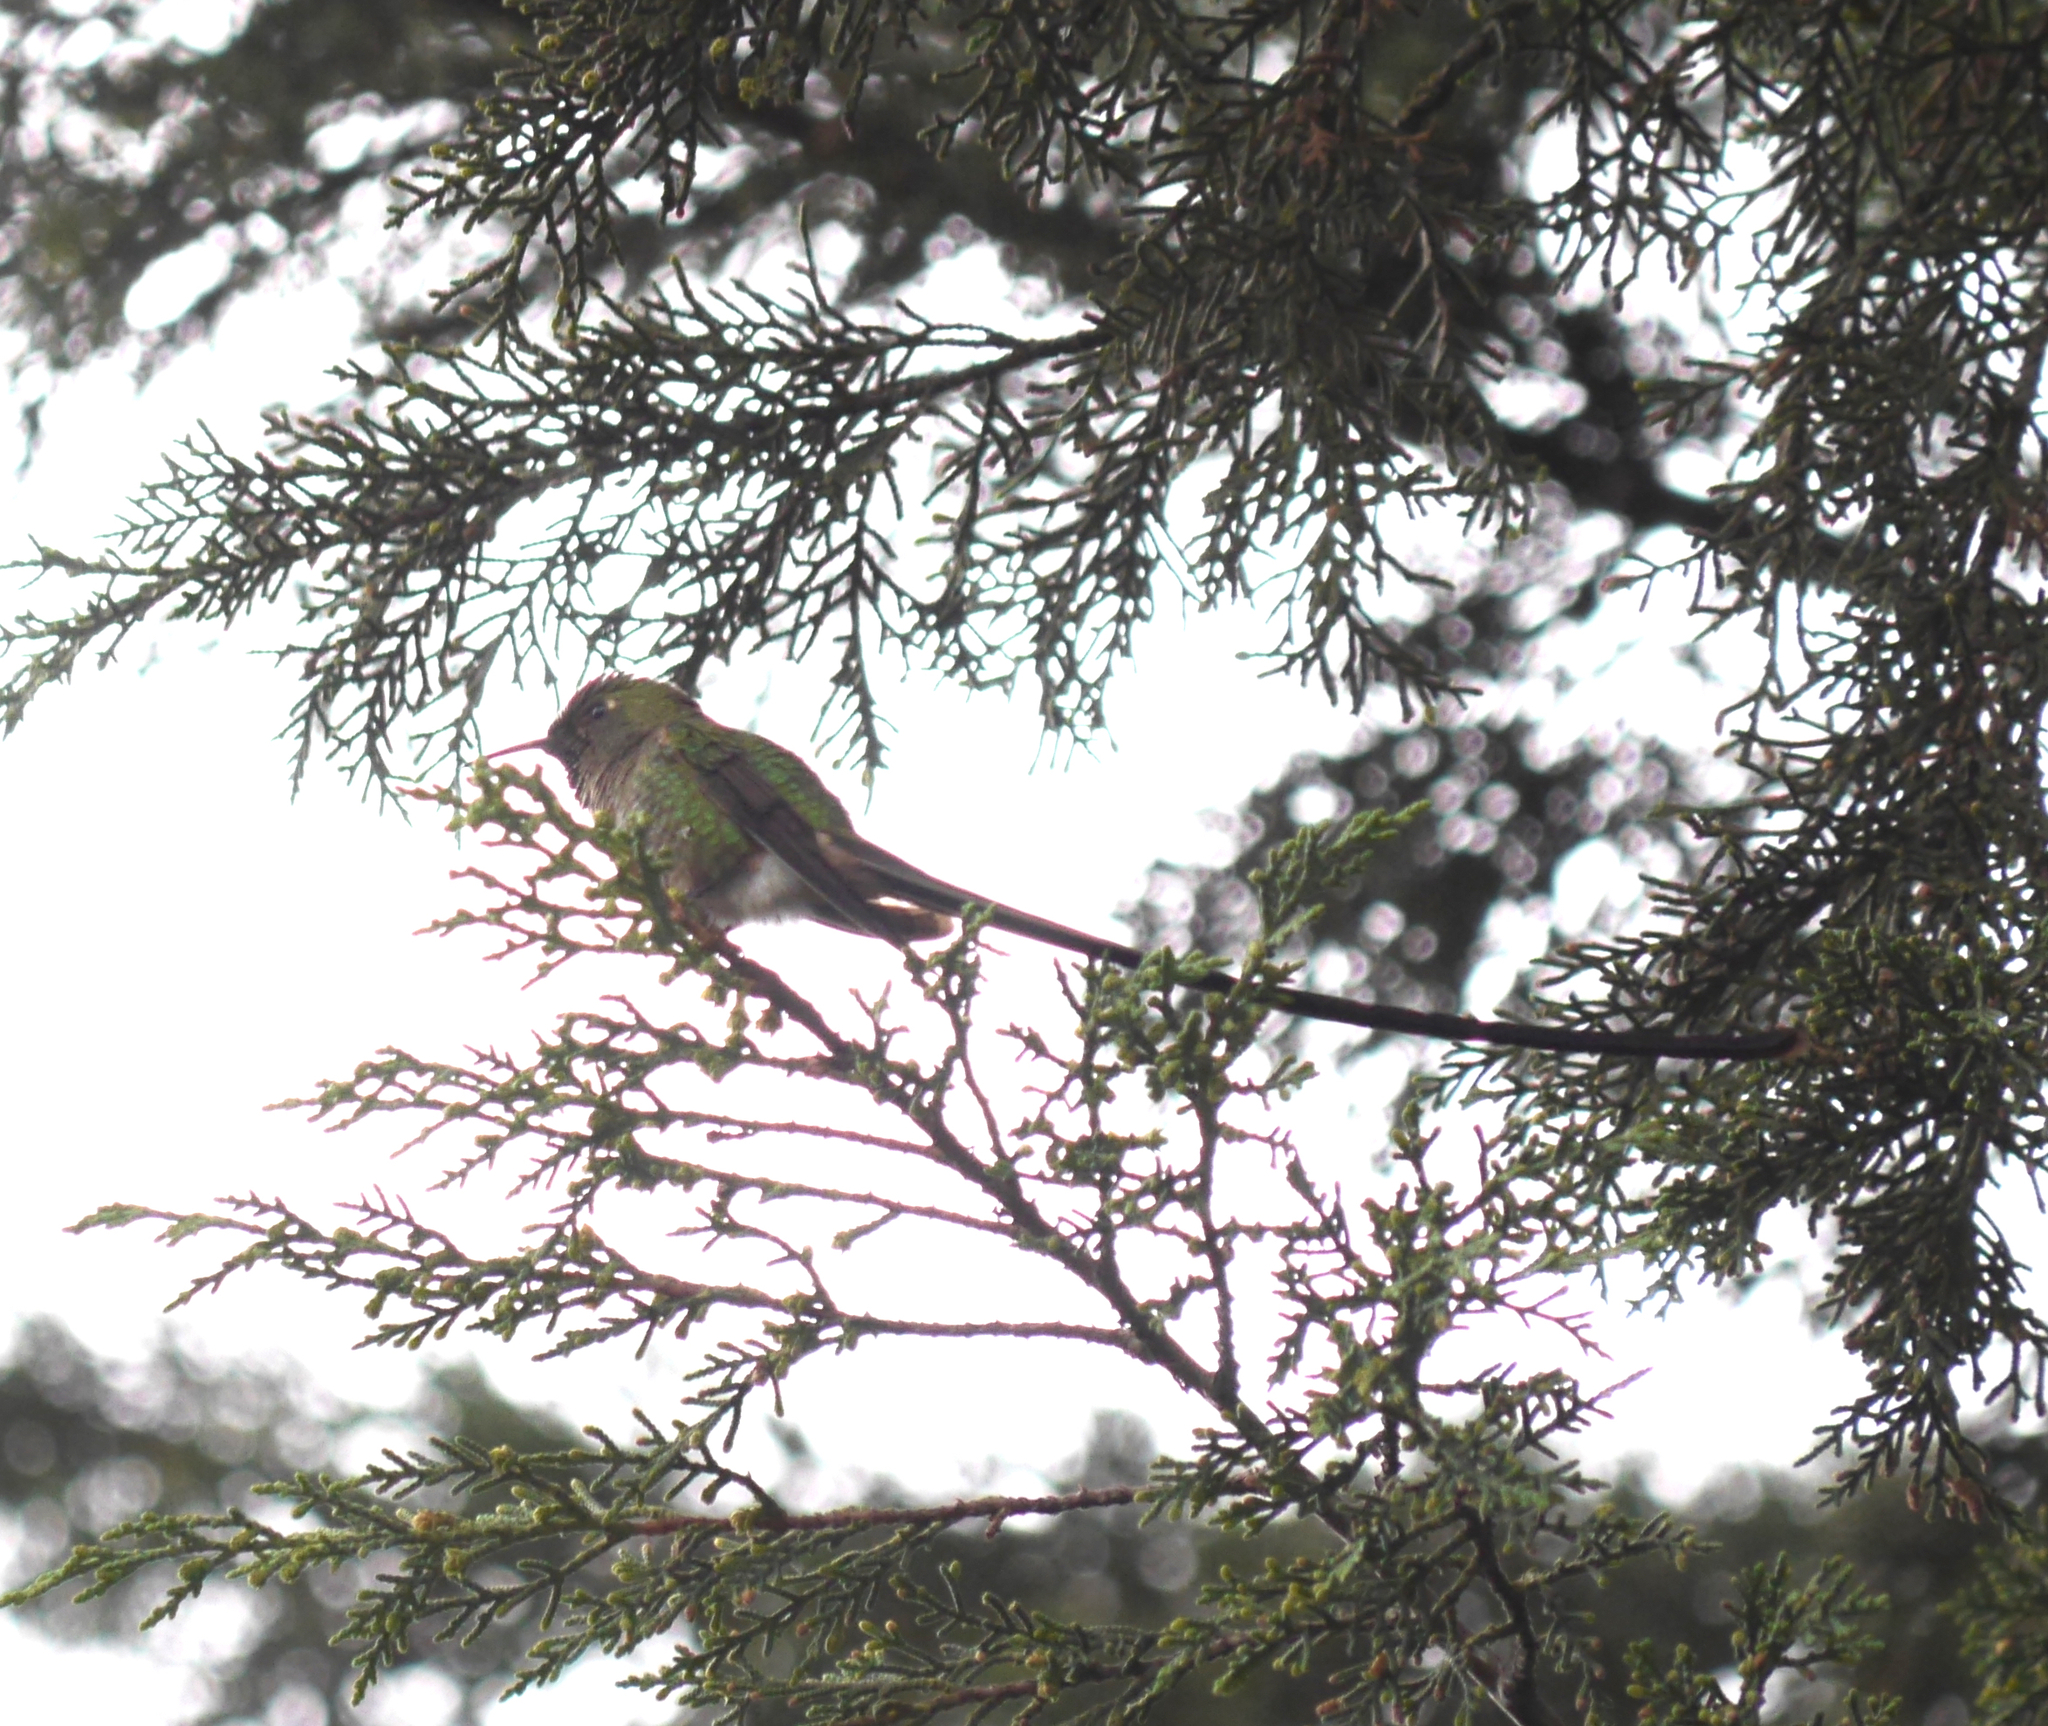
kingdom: Animalia
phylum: Chordata
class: Aves
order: Apodiformes
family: Trochilidae
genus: Lesbia
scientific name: Lesbia victoriae
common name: Black-tailed trainbearer
